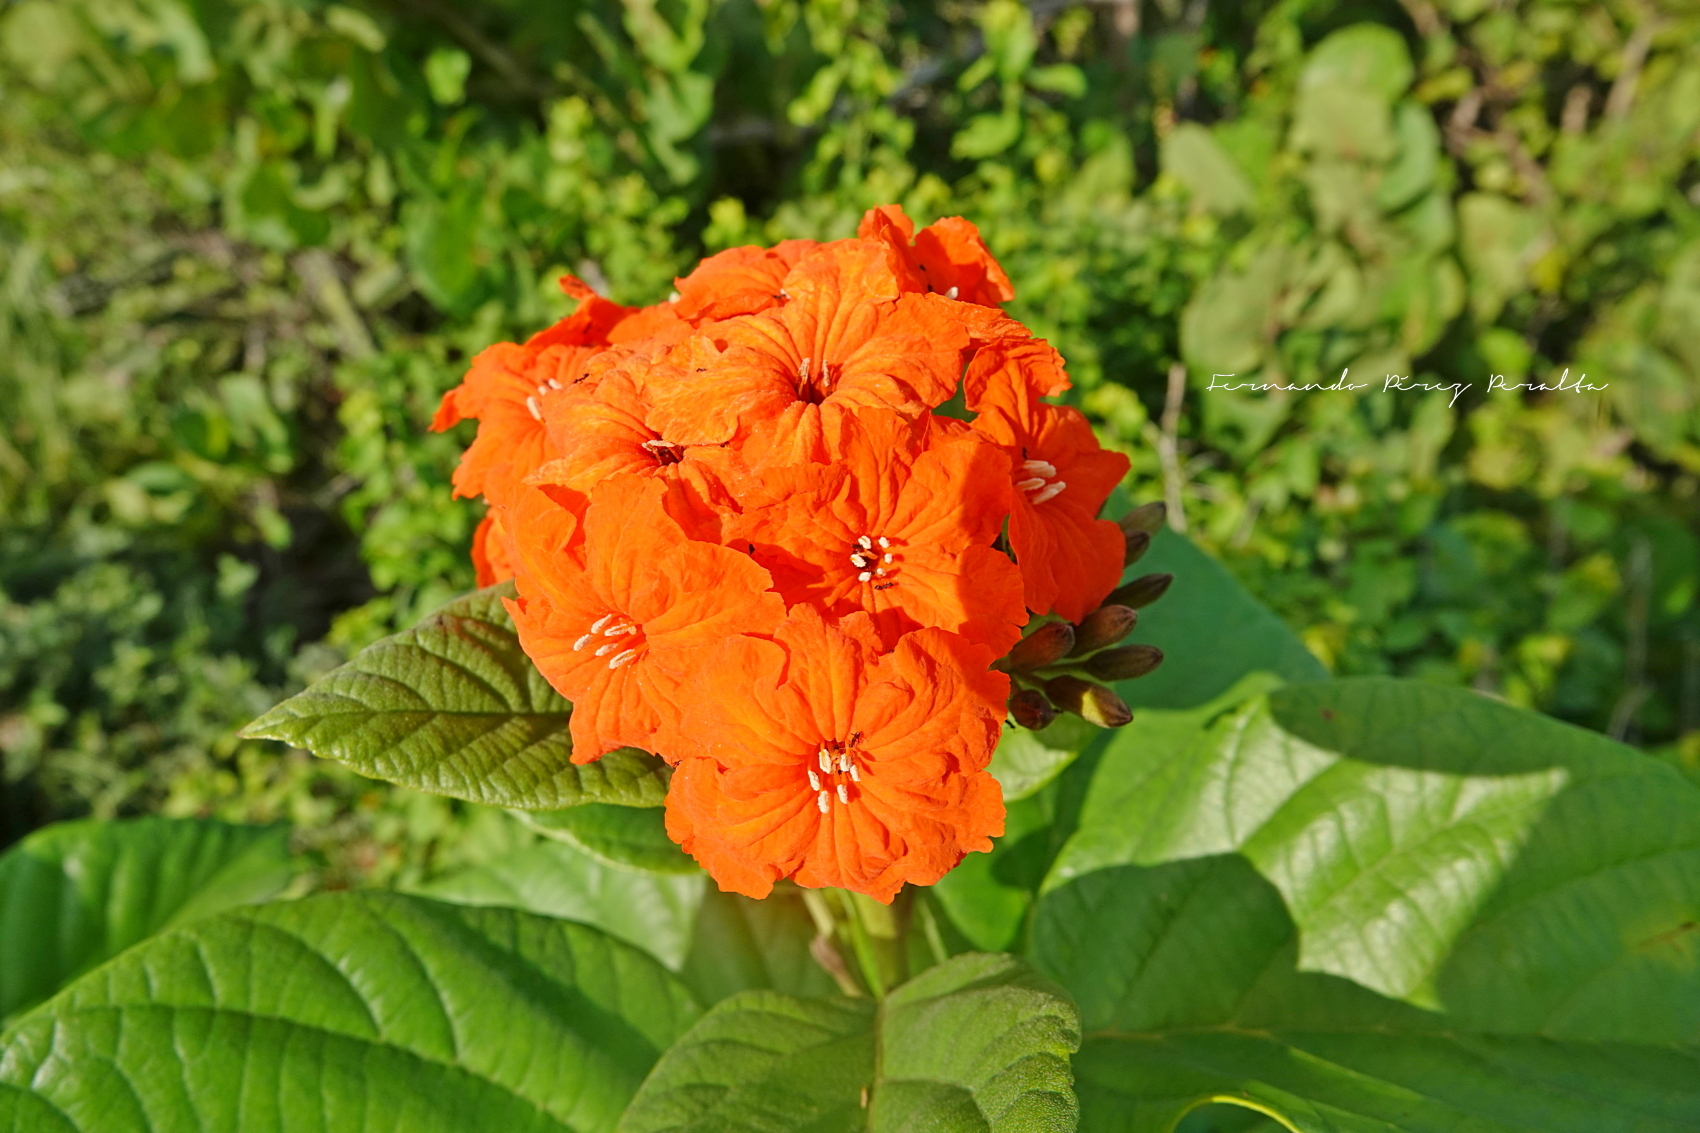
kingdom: Plantae
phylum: Tracheophyta
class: Magnoliopsida
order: Boraginales
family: Cordiaceae
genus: Cordia
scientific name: Cordia sebestena
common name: Largeleaf geigertree
